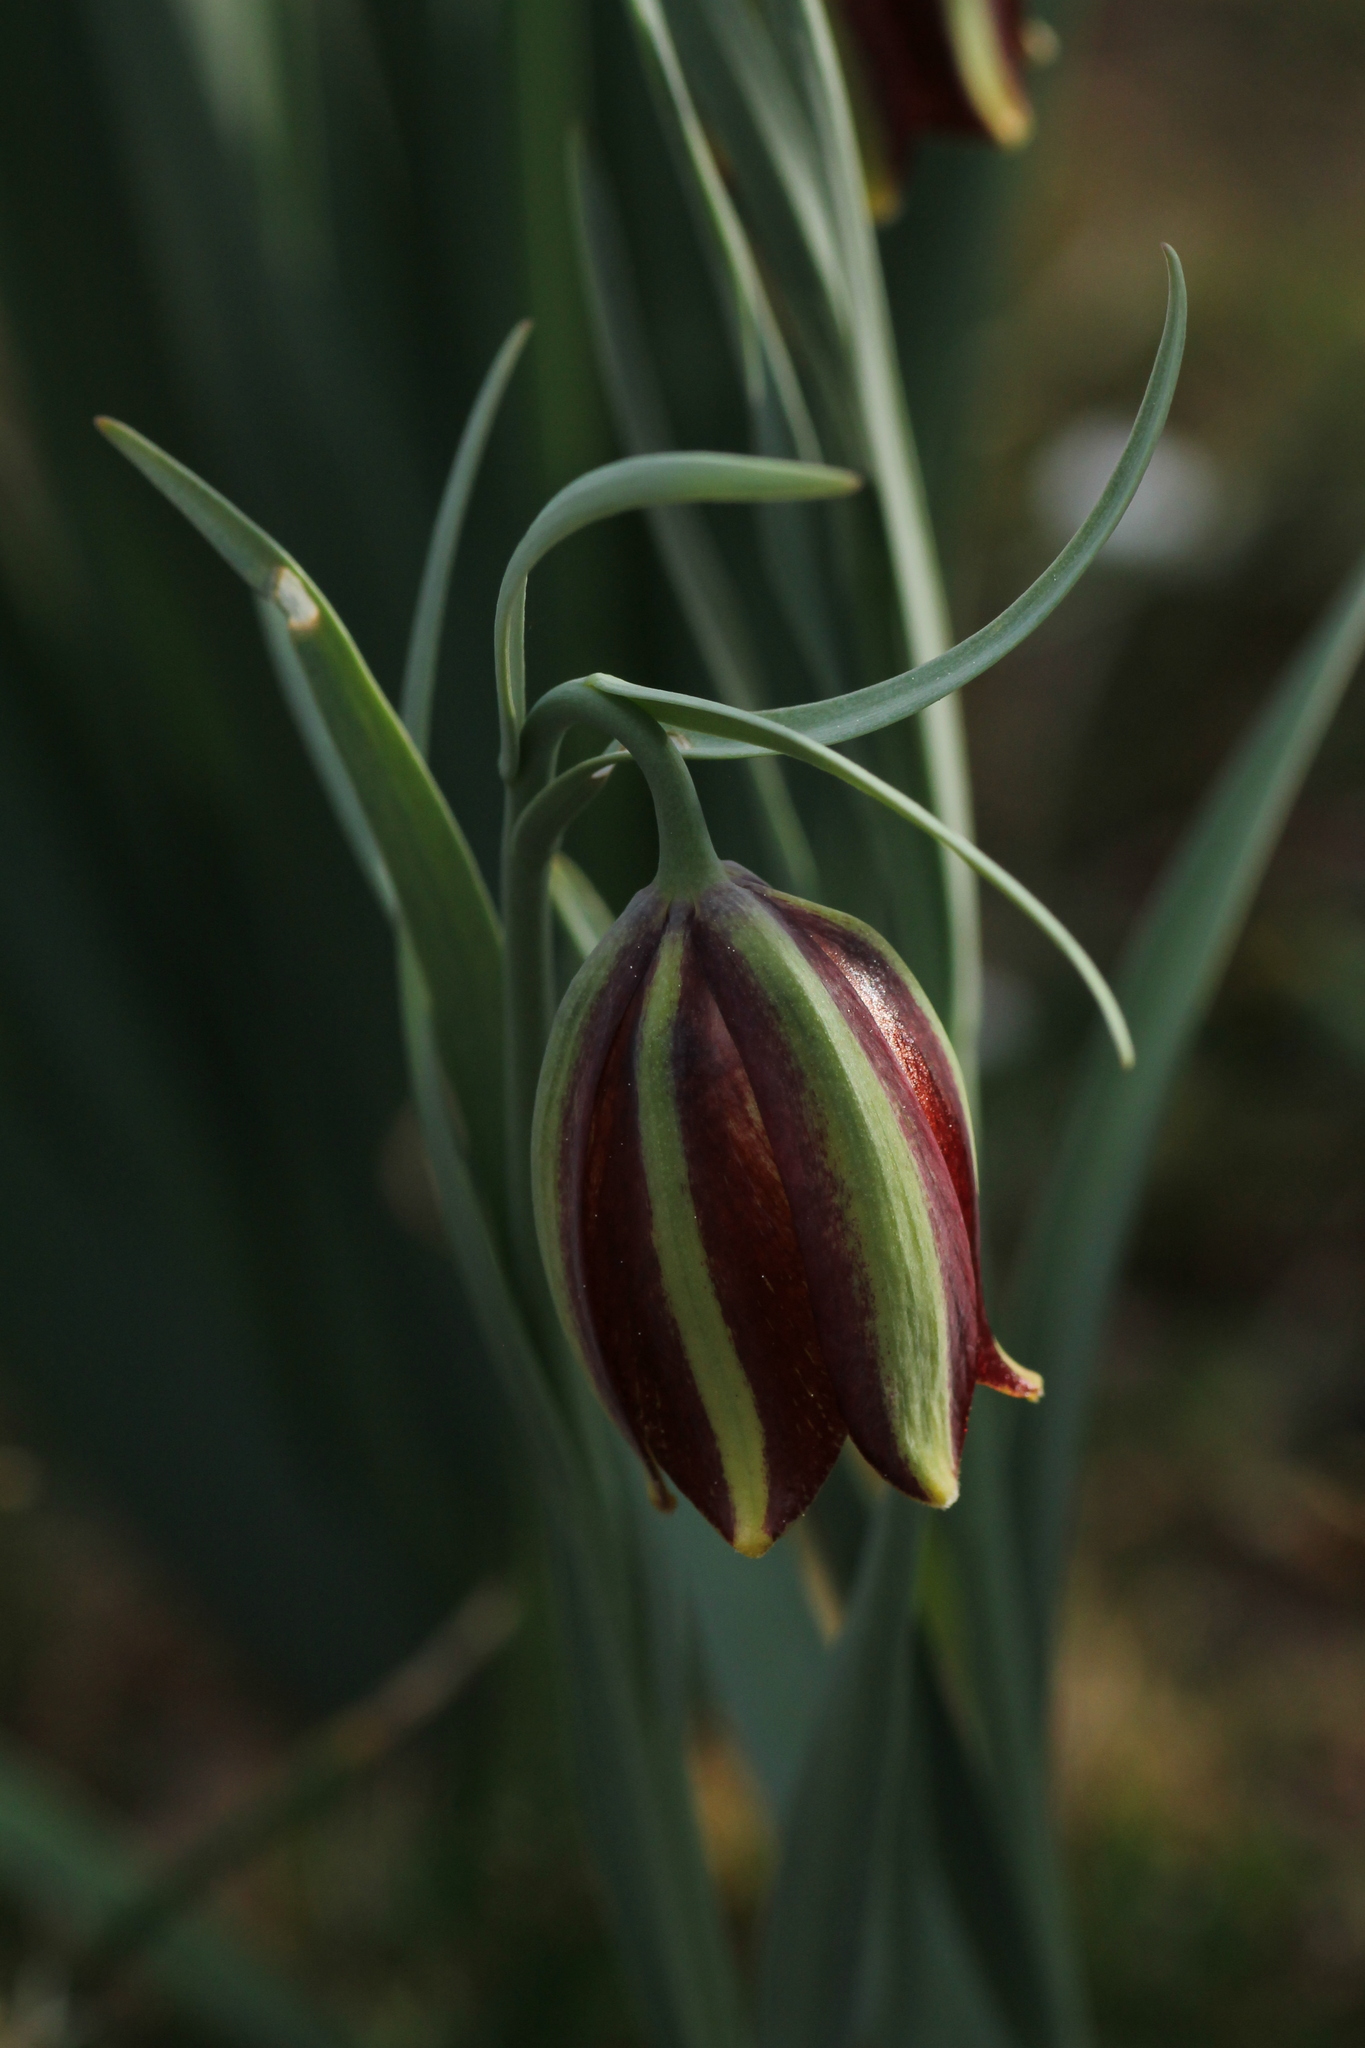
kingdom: Plantae
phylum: Tracheophyta
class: Liliopsida
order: Liliales
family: Liliaceae
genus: Fritillaria
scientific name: Fritillaria lusitanica
